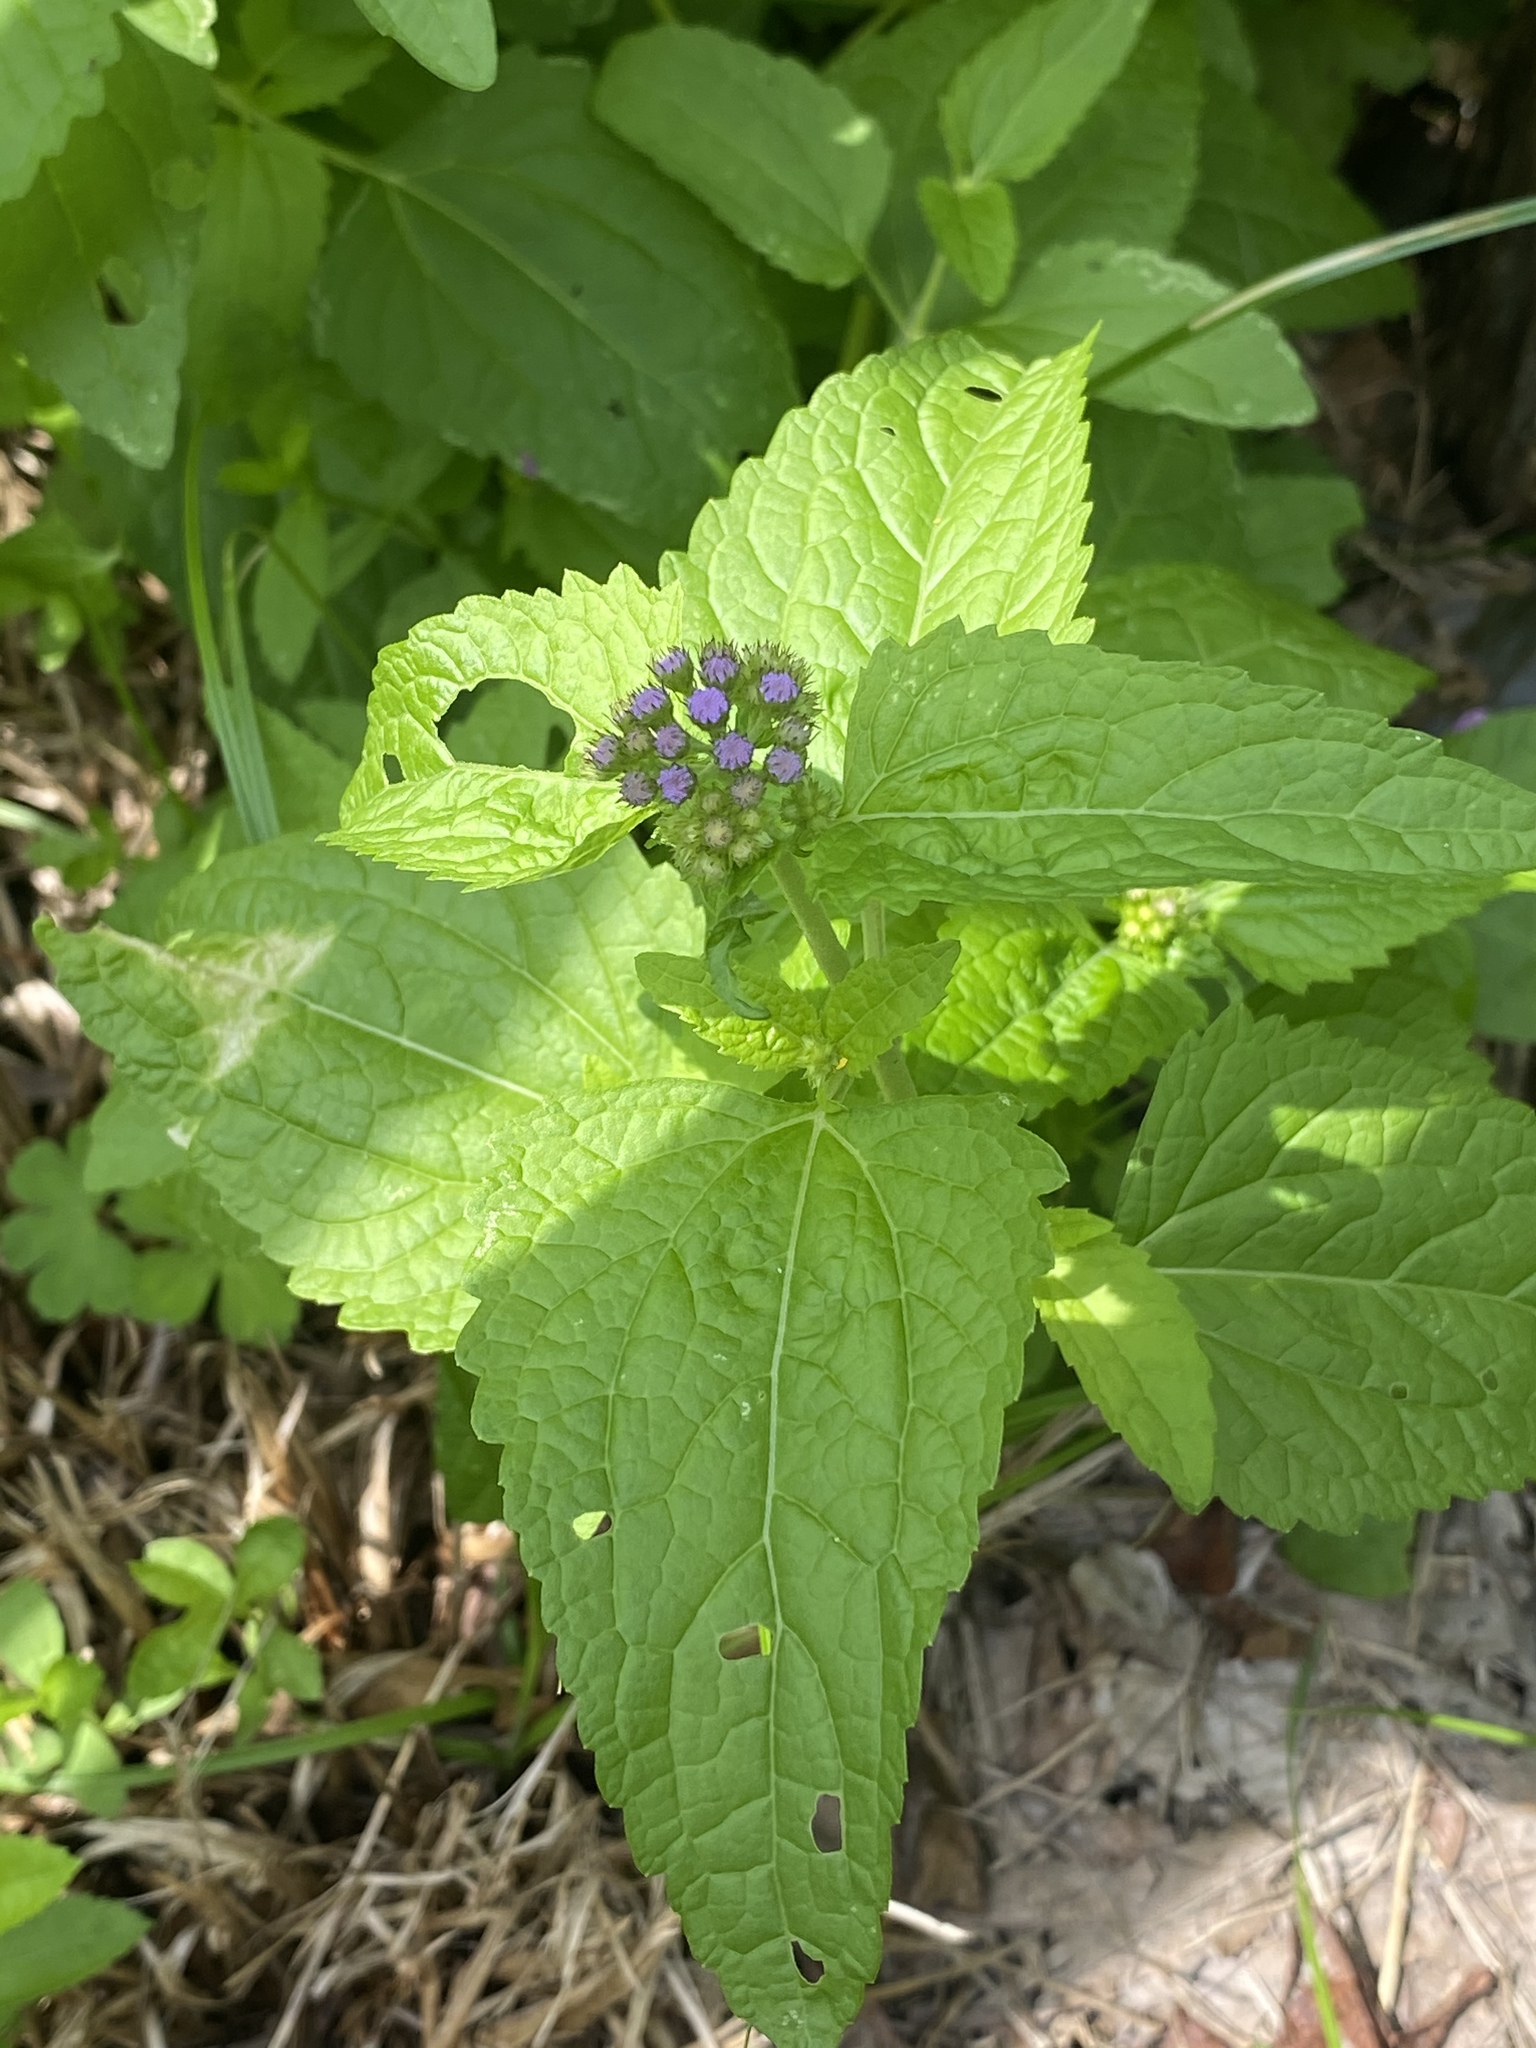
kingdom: Plantae
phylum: Tracheophyta
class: Magnoliopsida
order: Asterales
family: Asteraceae
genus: Conoclinium
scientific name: Conoclinium coelestinum
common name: Blue mistflower
